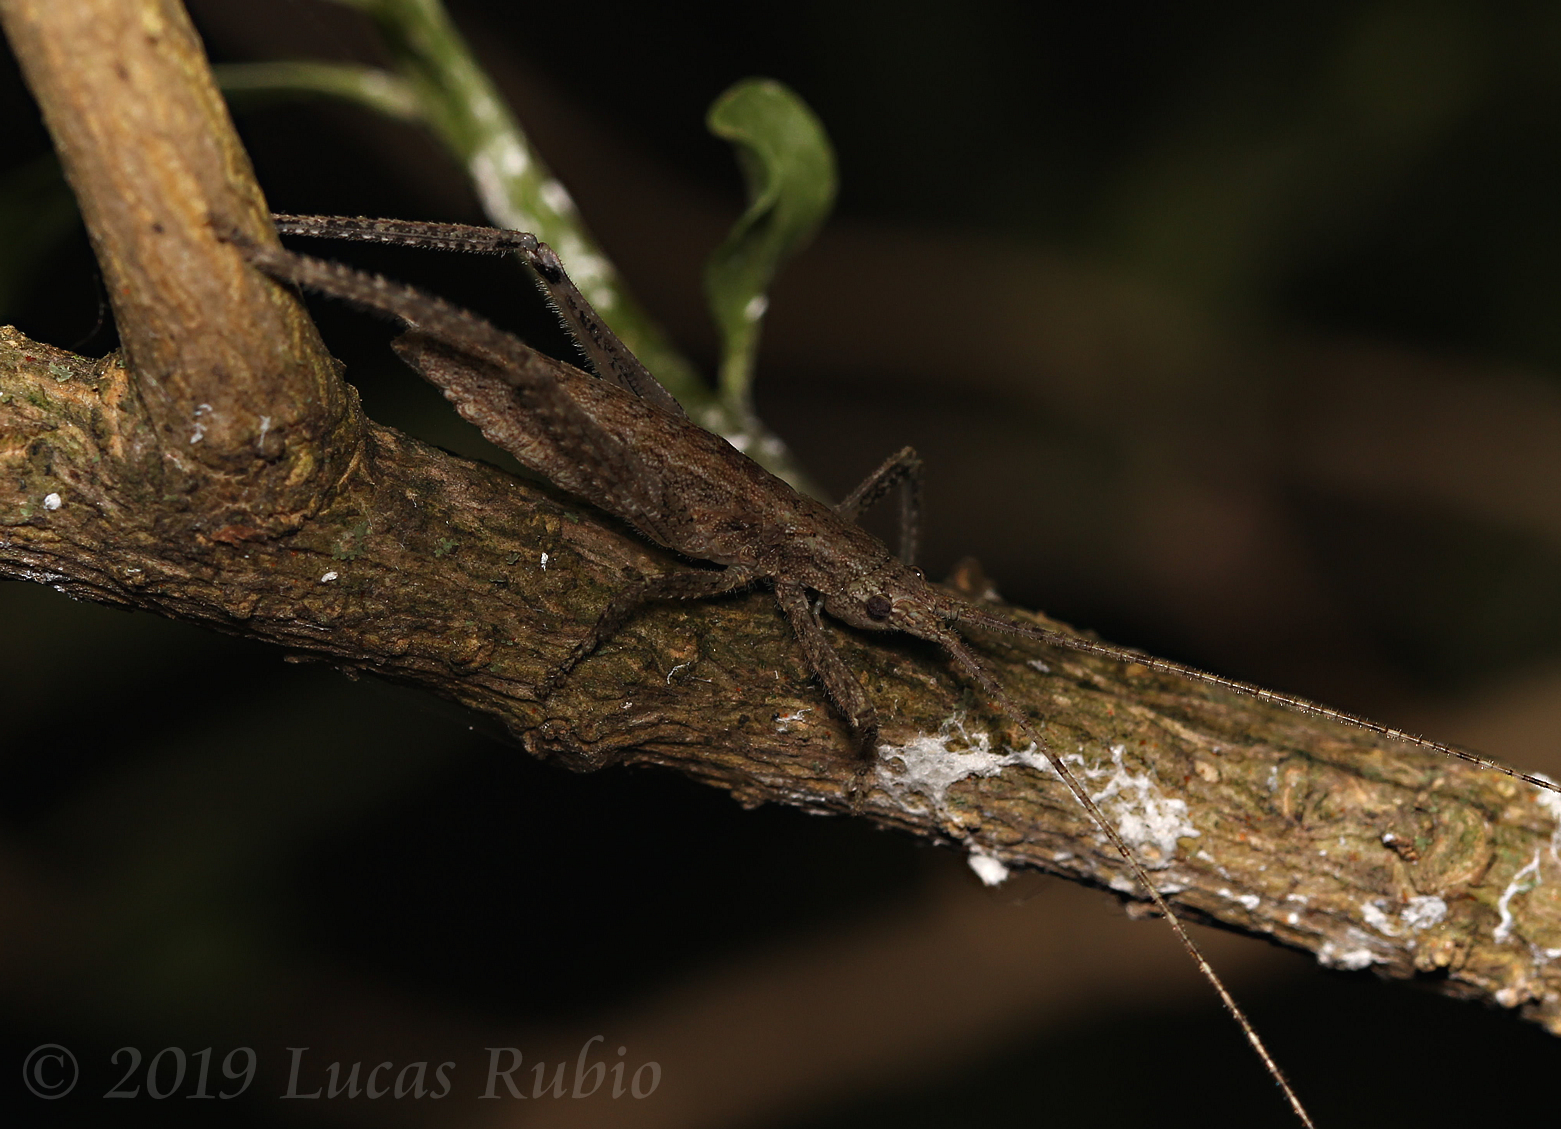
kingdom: Animalia
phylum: Arthropoda
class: Insecta
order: Orthoptera
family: Tettigoniidae
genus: Dasyscelus
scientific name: Dasyscelus normalis
